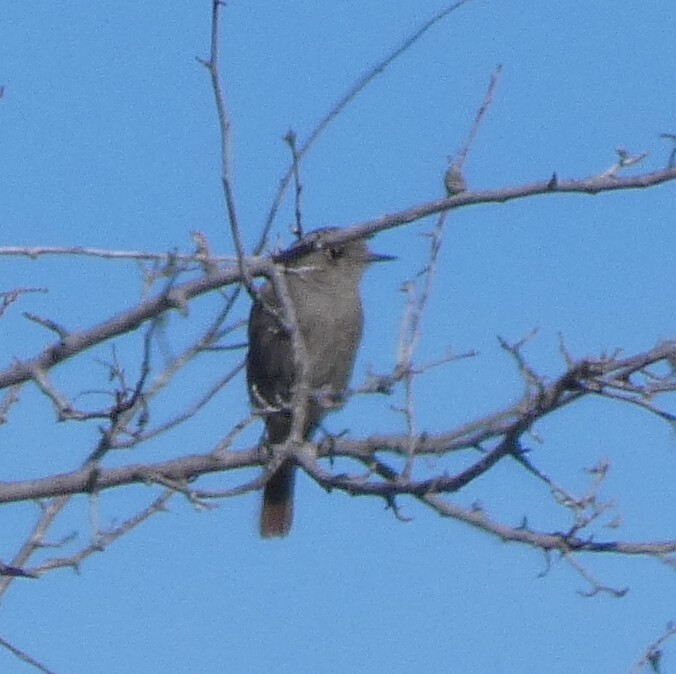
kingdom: Animalia
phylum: Chordata
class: Aves
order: Passeriformes
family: Muscicapidae
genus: Phoenicurus
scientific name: Phoenicurus ochruros
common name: Black redstart
